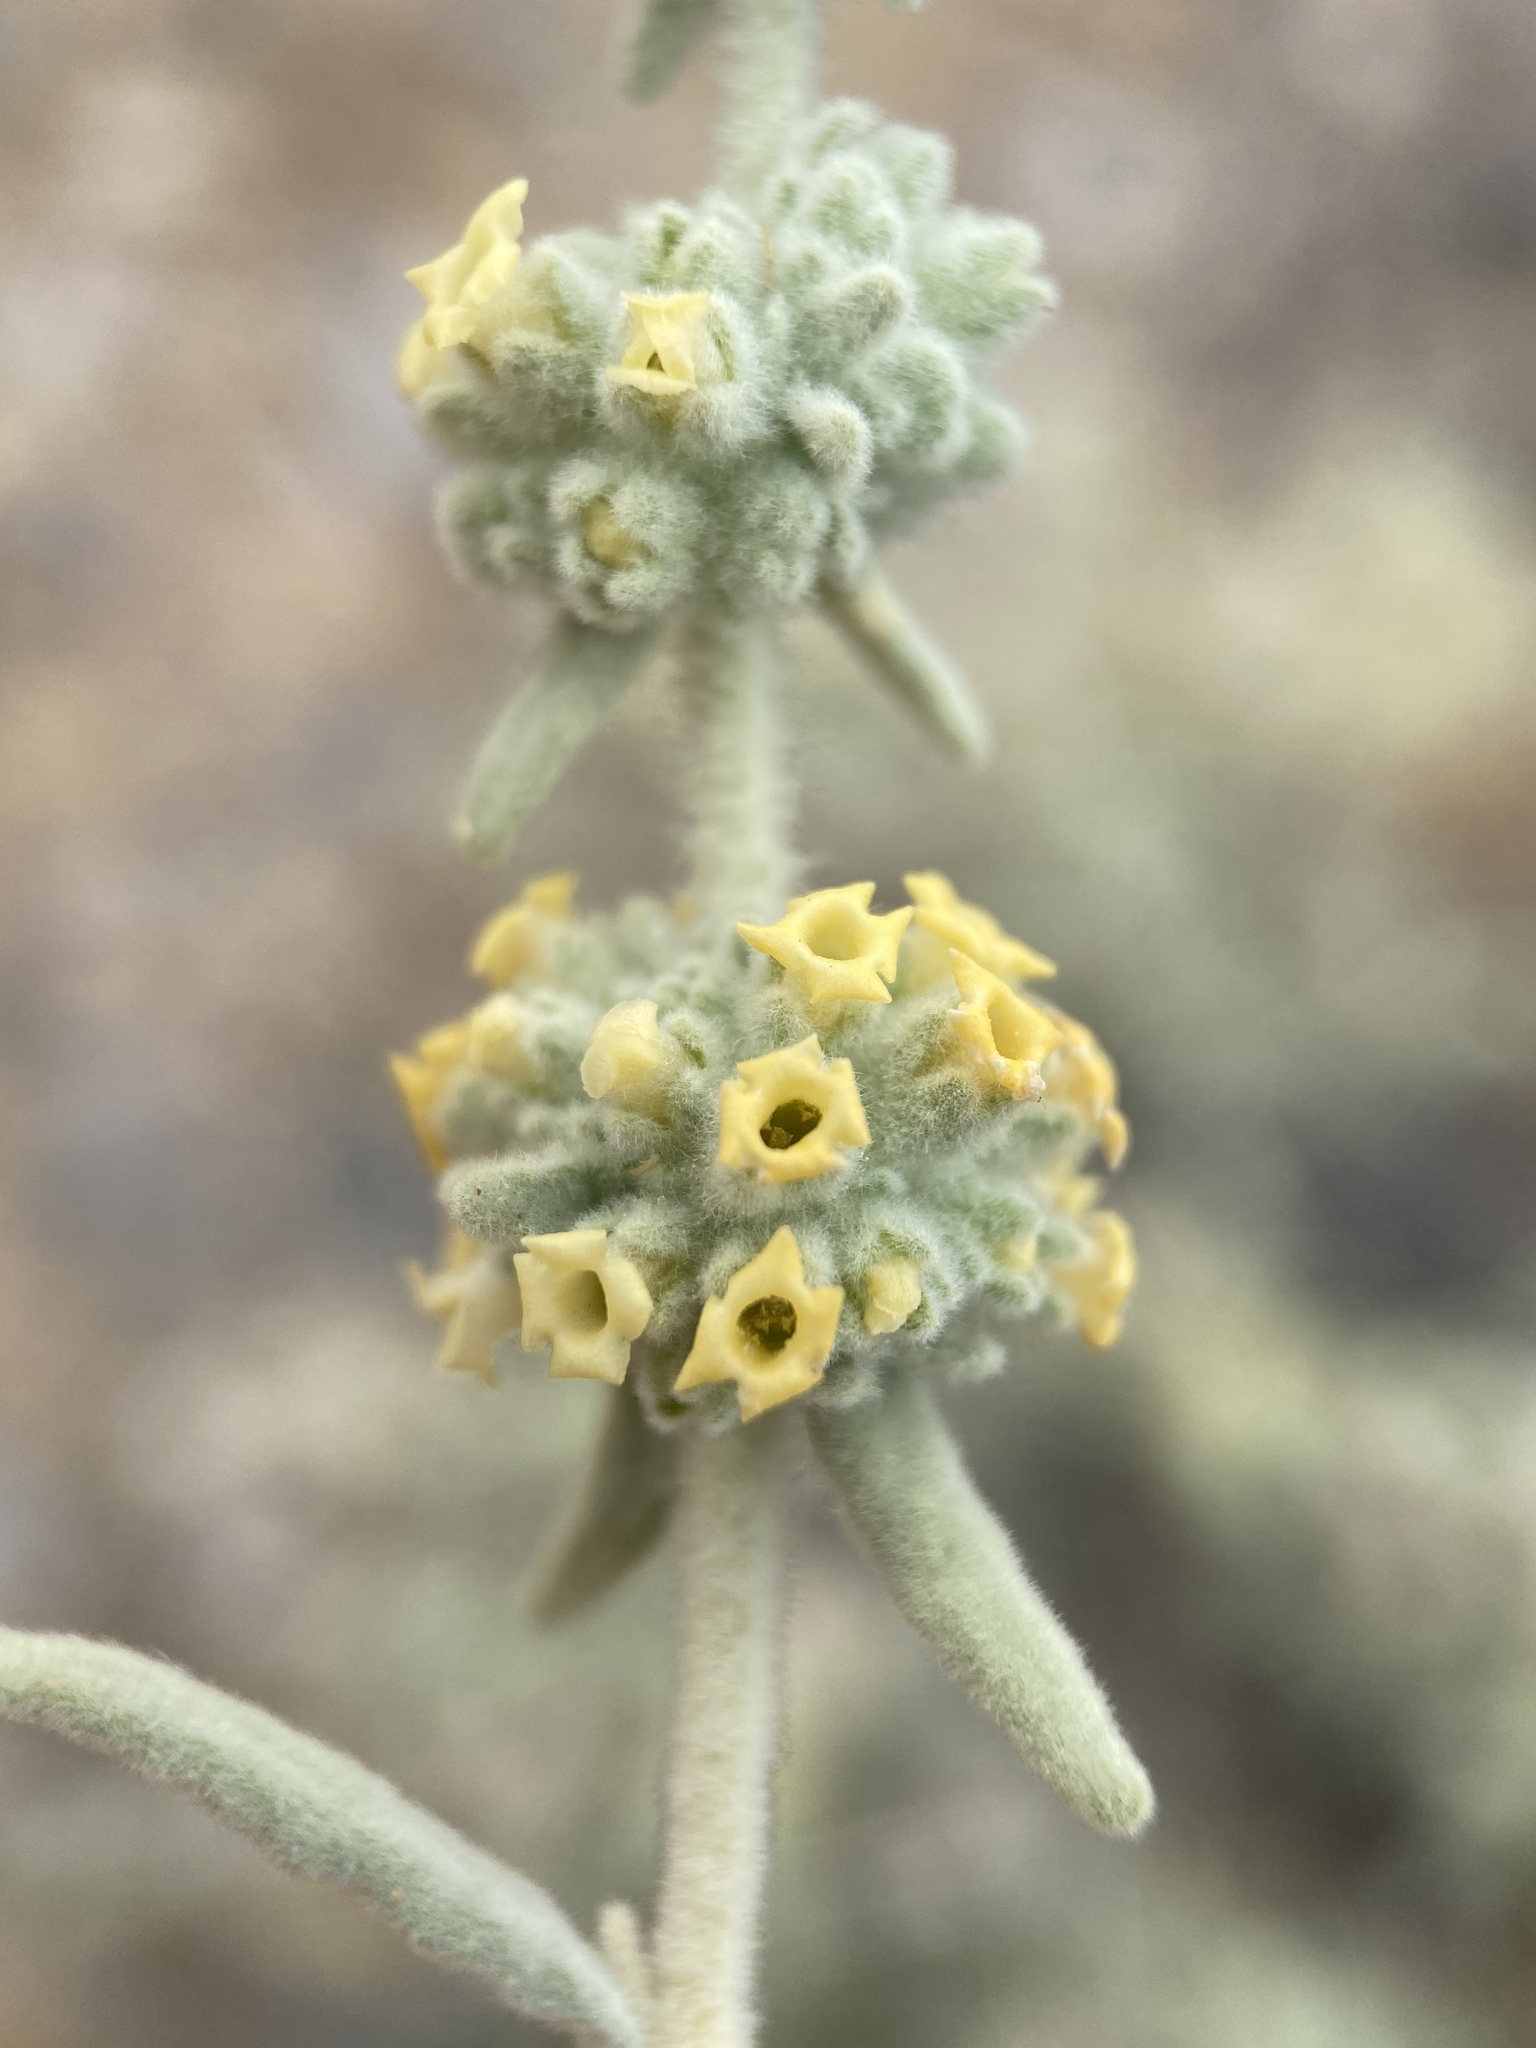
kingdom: Plantae
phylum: Tracheophyta
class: Magnoliopsida
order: Lamiales
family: Scrophulariaceae
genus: Buddleja
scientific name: Buddleja utahensis
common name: Utah butterfly-bush
